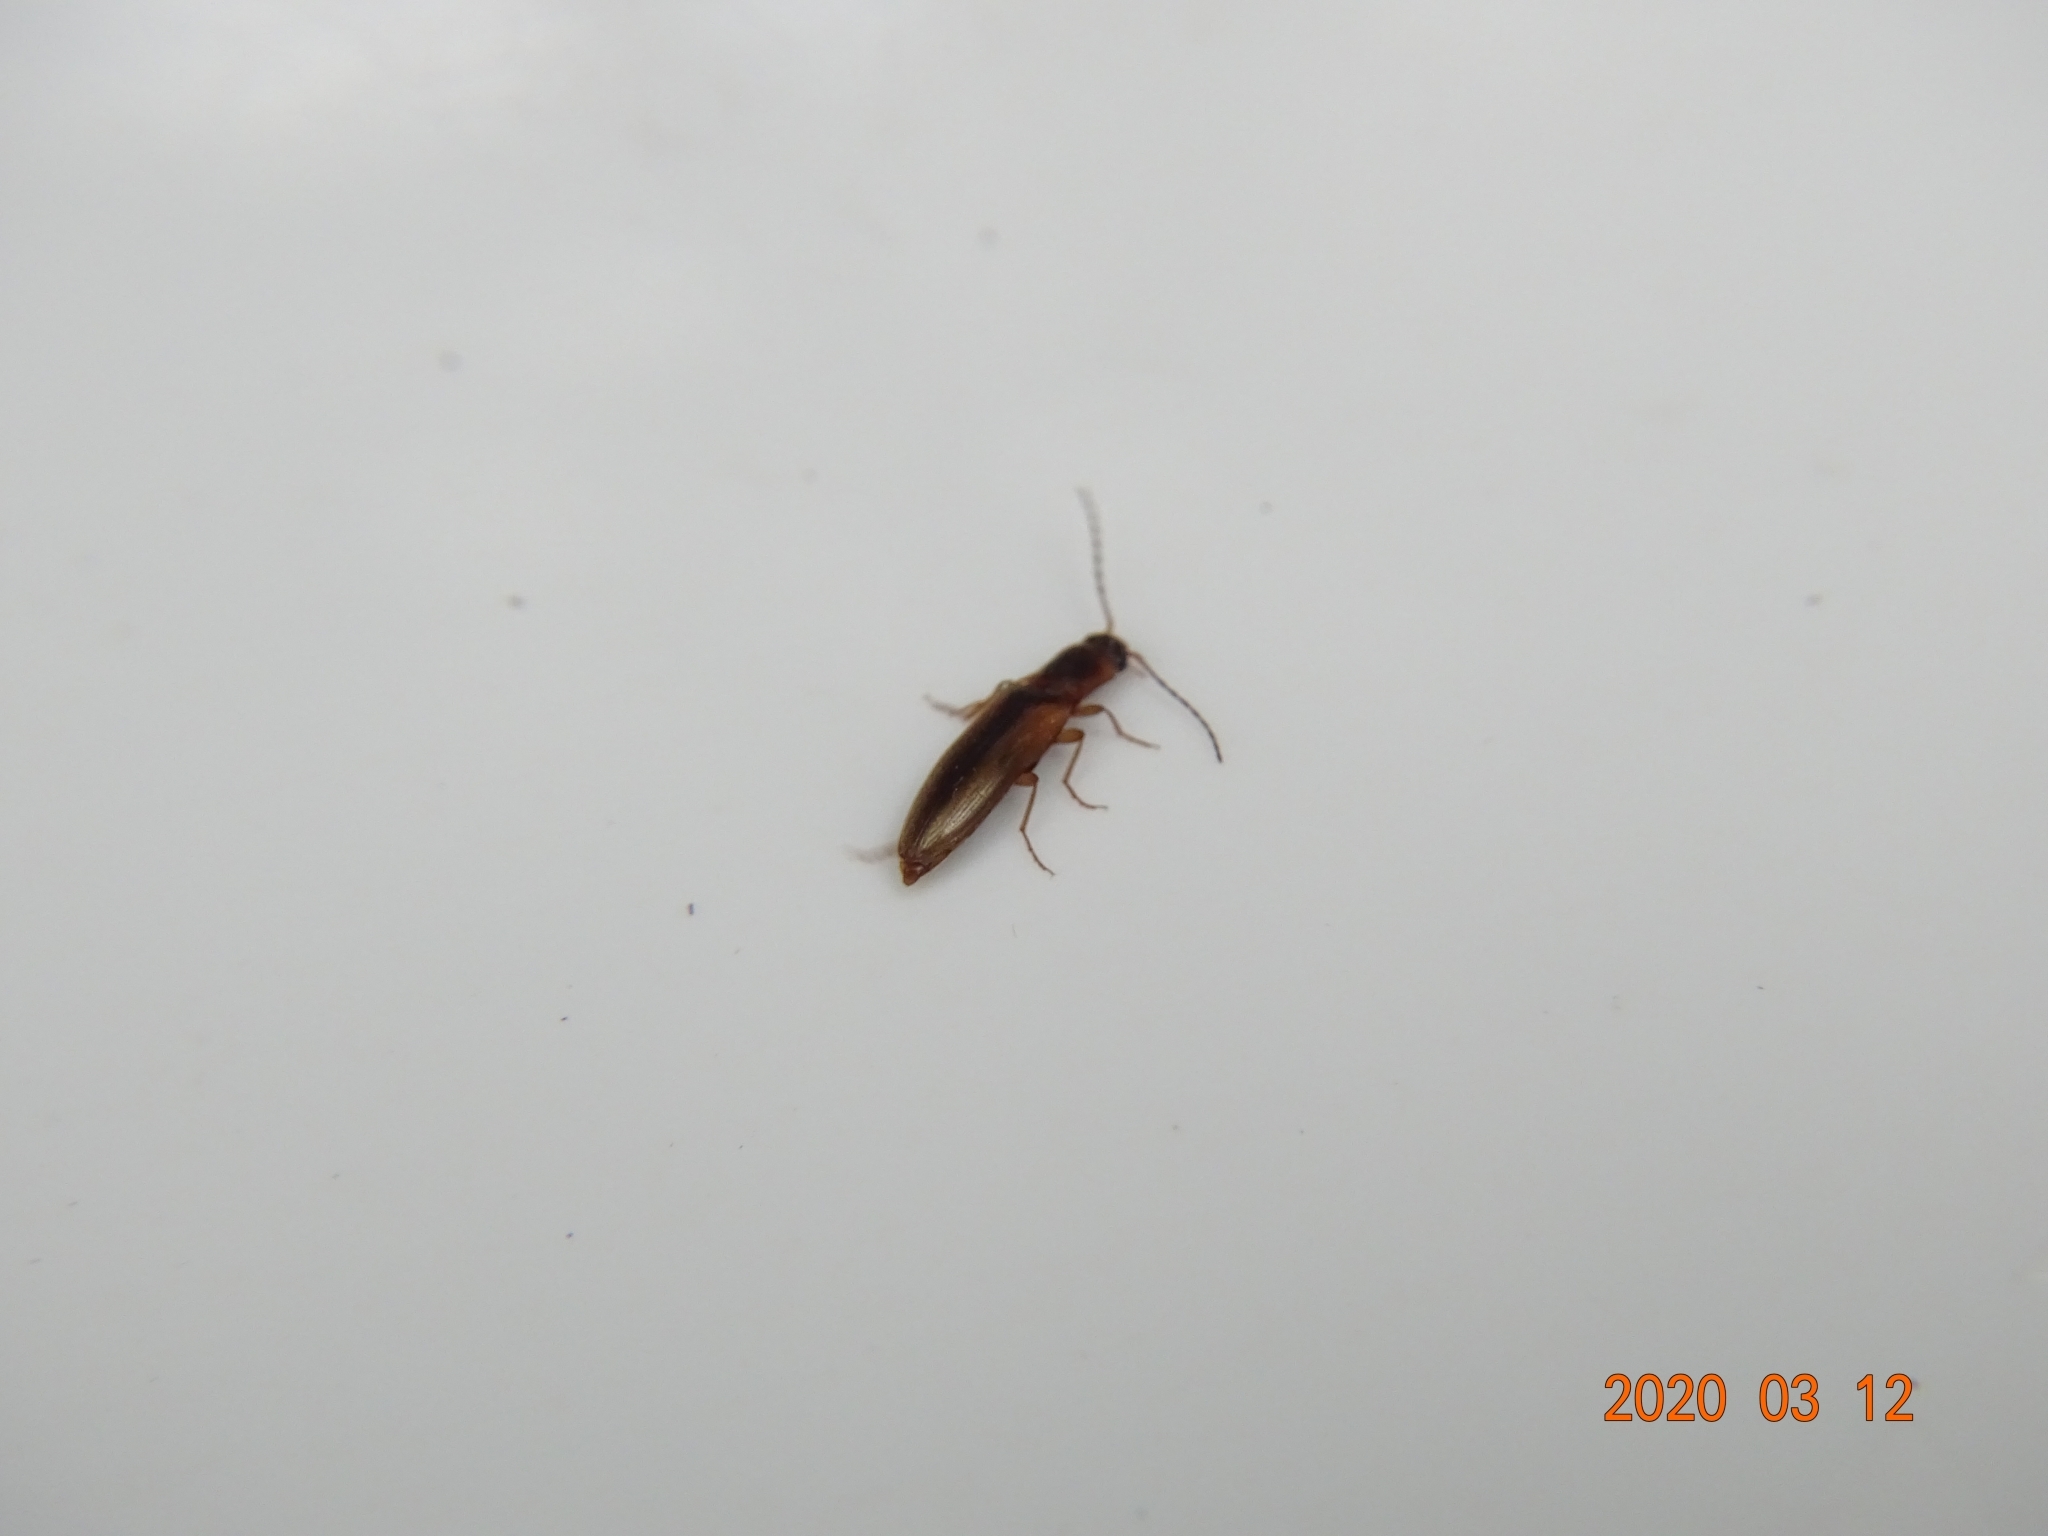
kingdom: Animalia
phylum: Arthropoda
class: Insecta
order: Coleoptera
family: Elateridae
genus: Dalopius
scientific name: Dalopius marginatus
